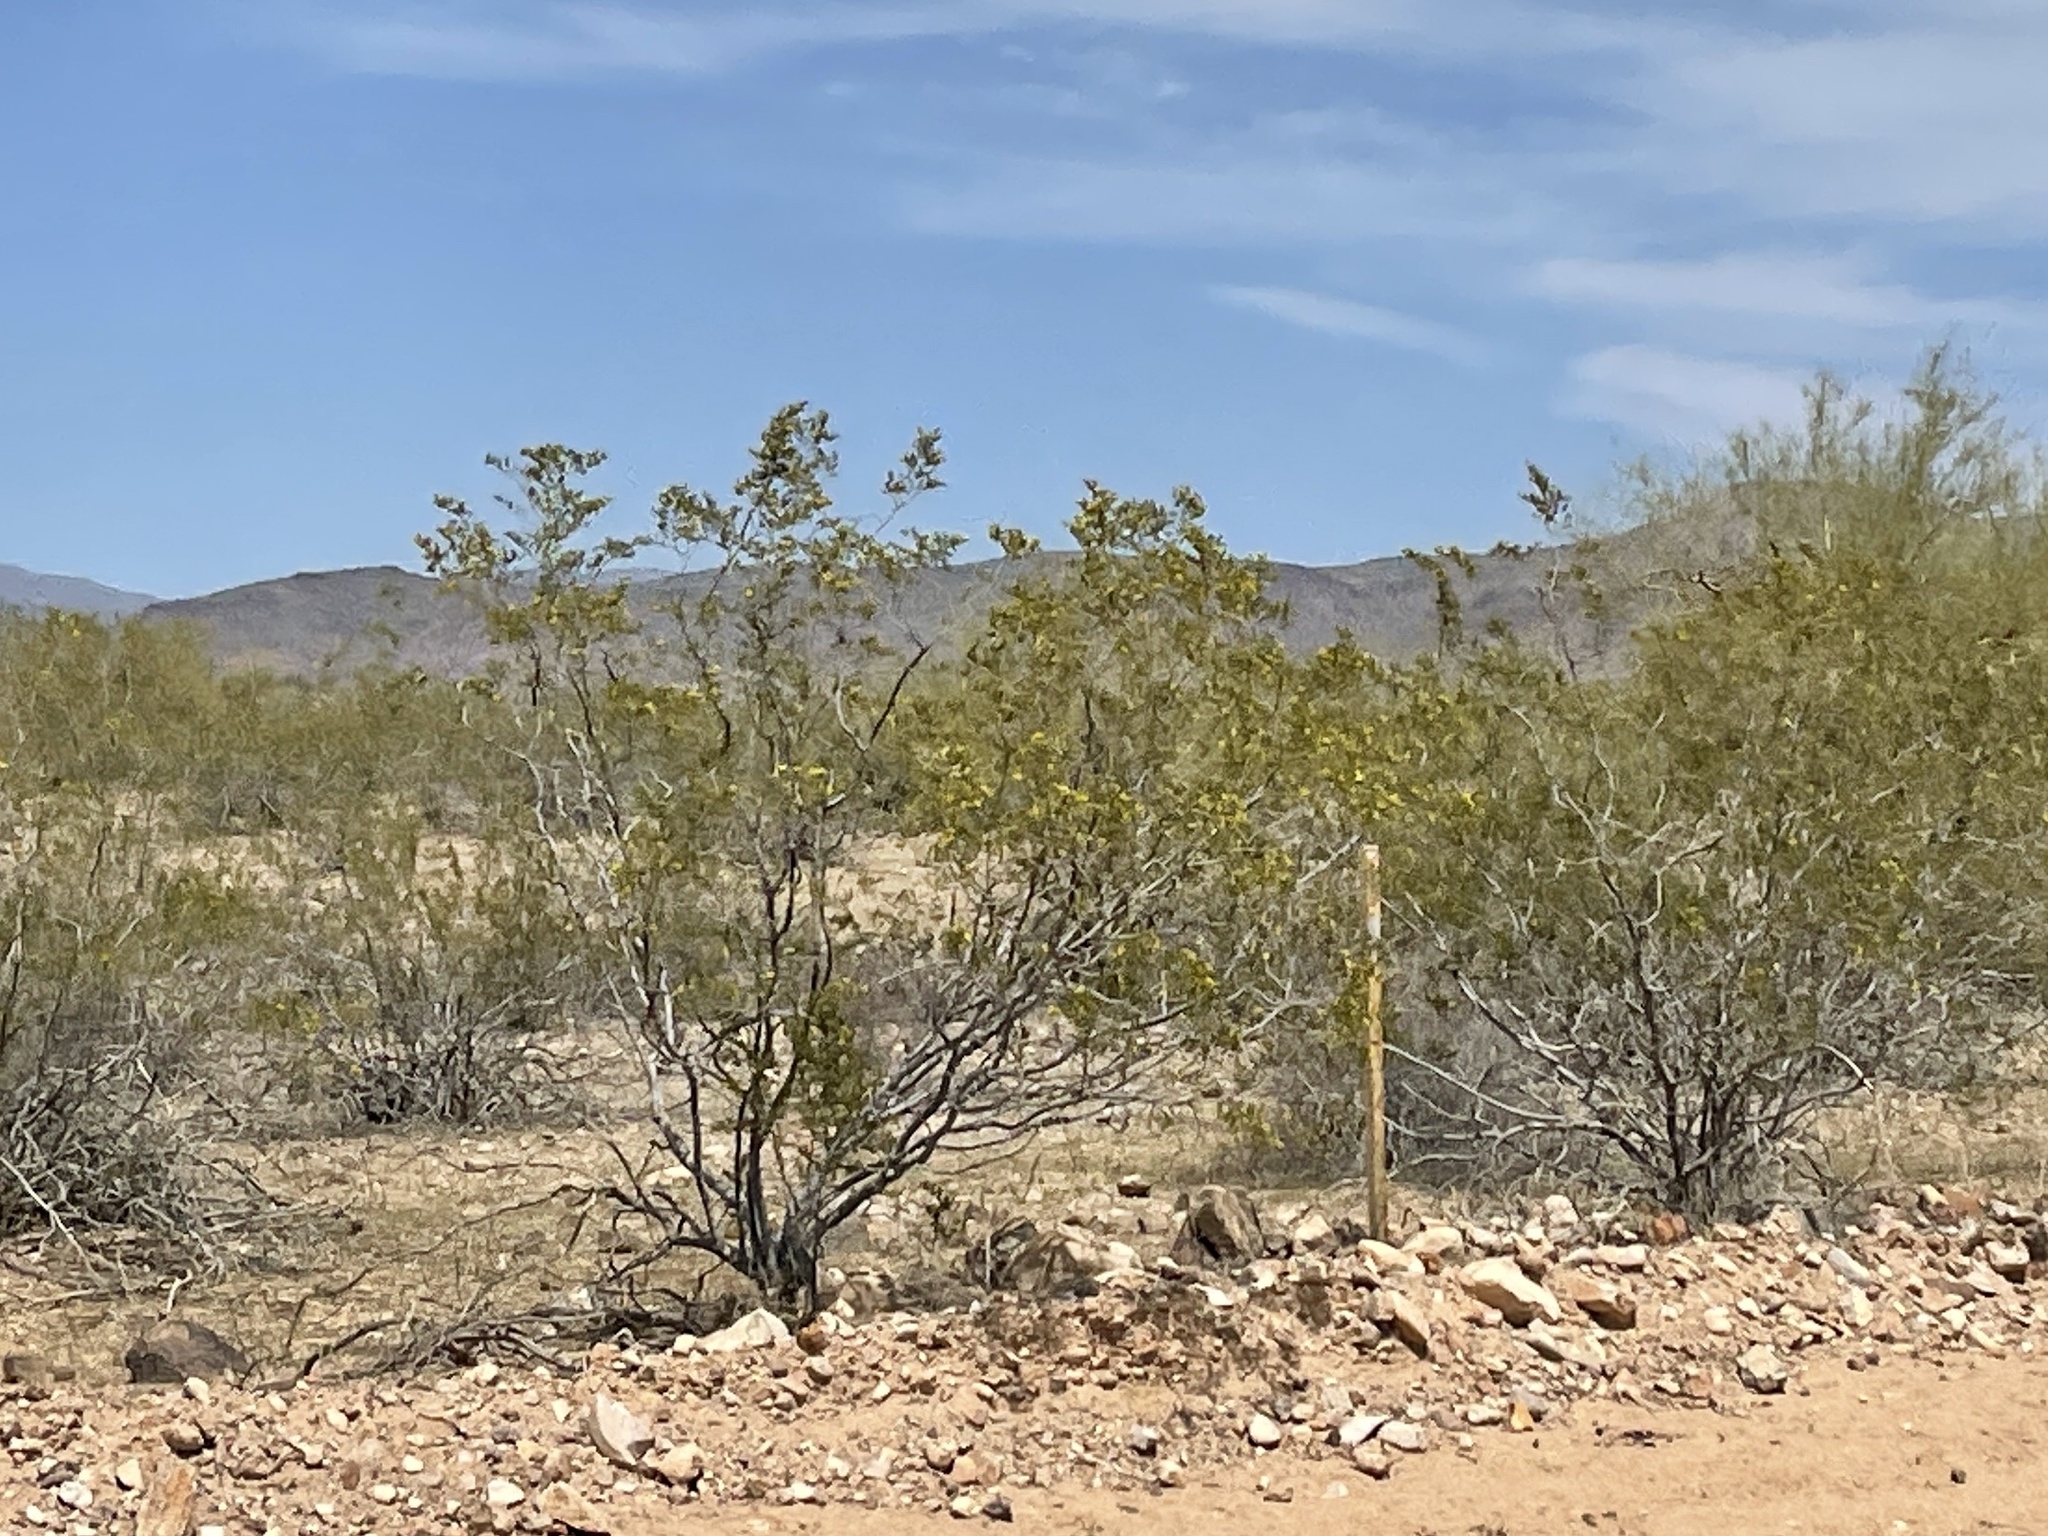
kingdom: Plantae
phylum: Tracheophyta
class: Magnoliopsida
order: Zygophyllales
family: Zygophyllaceae
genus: Larrea
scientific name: Larrea tridentata
